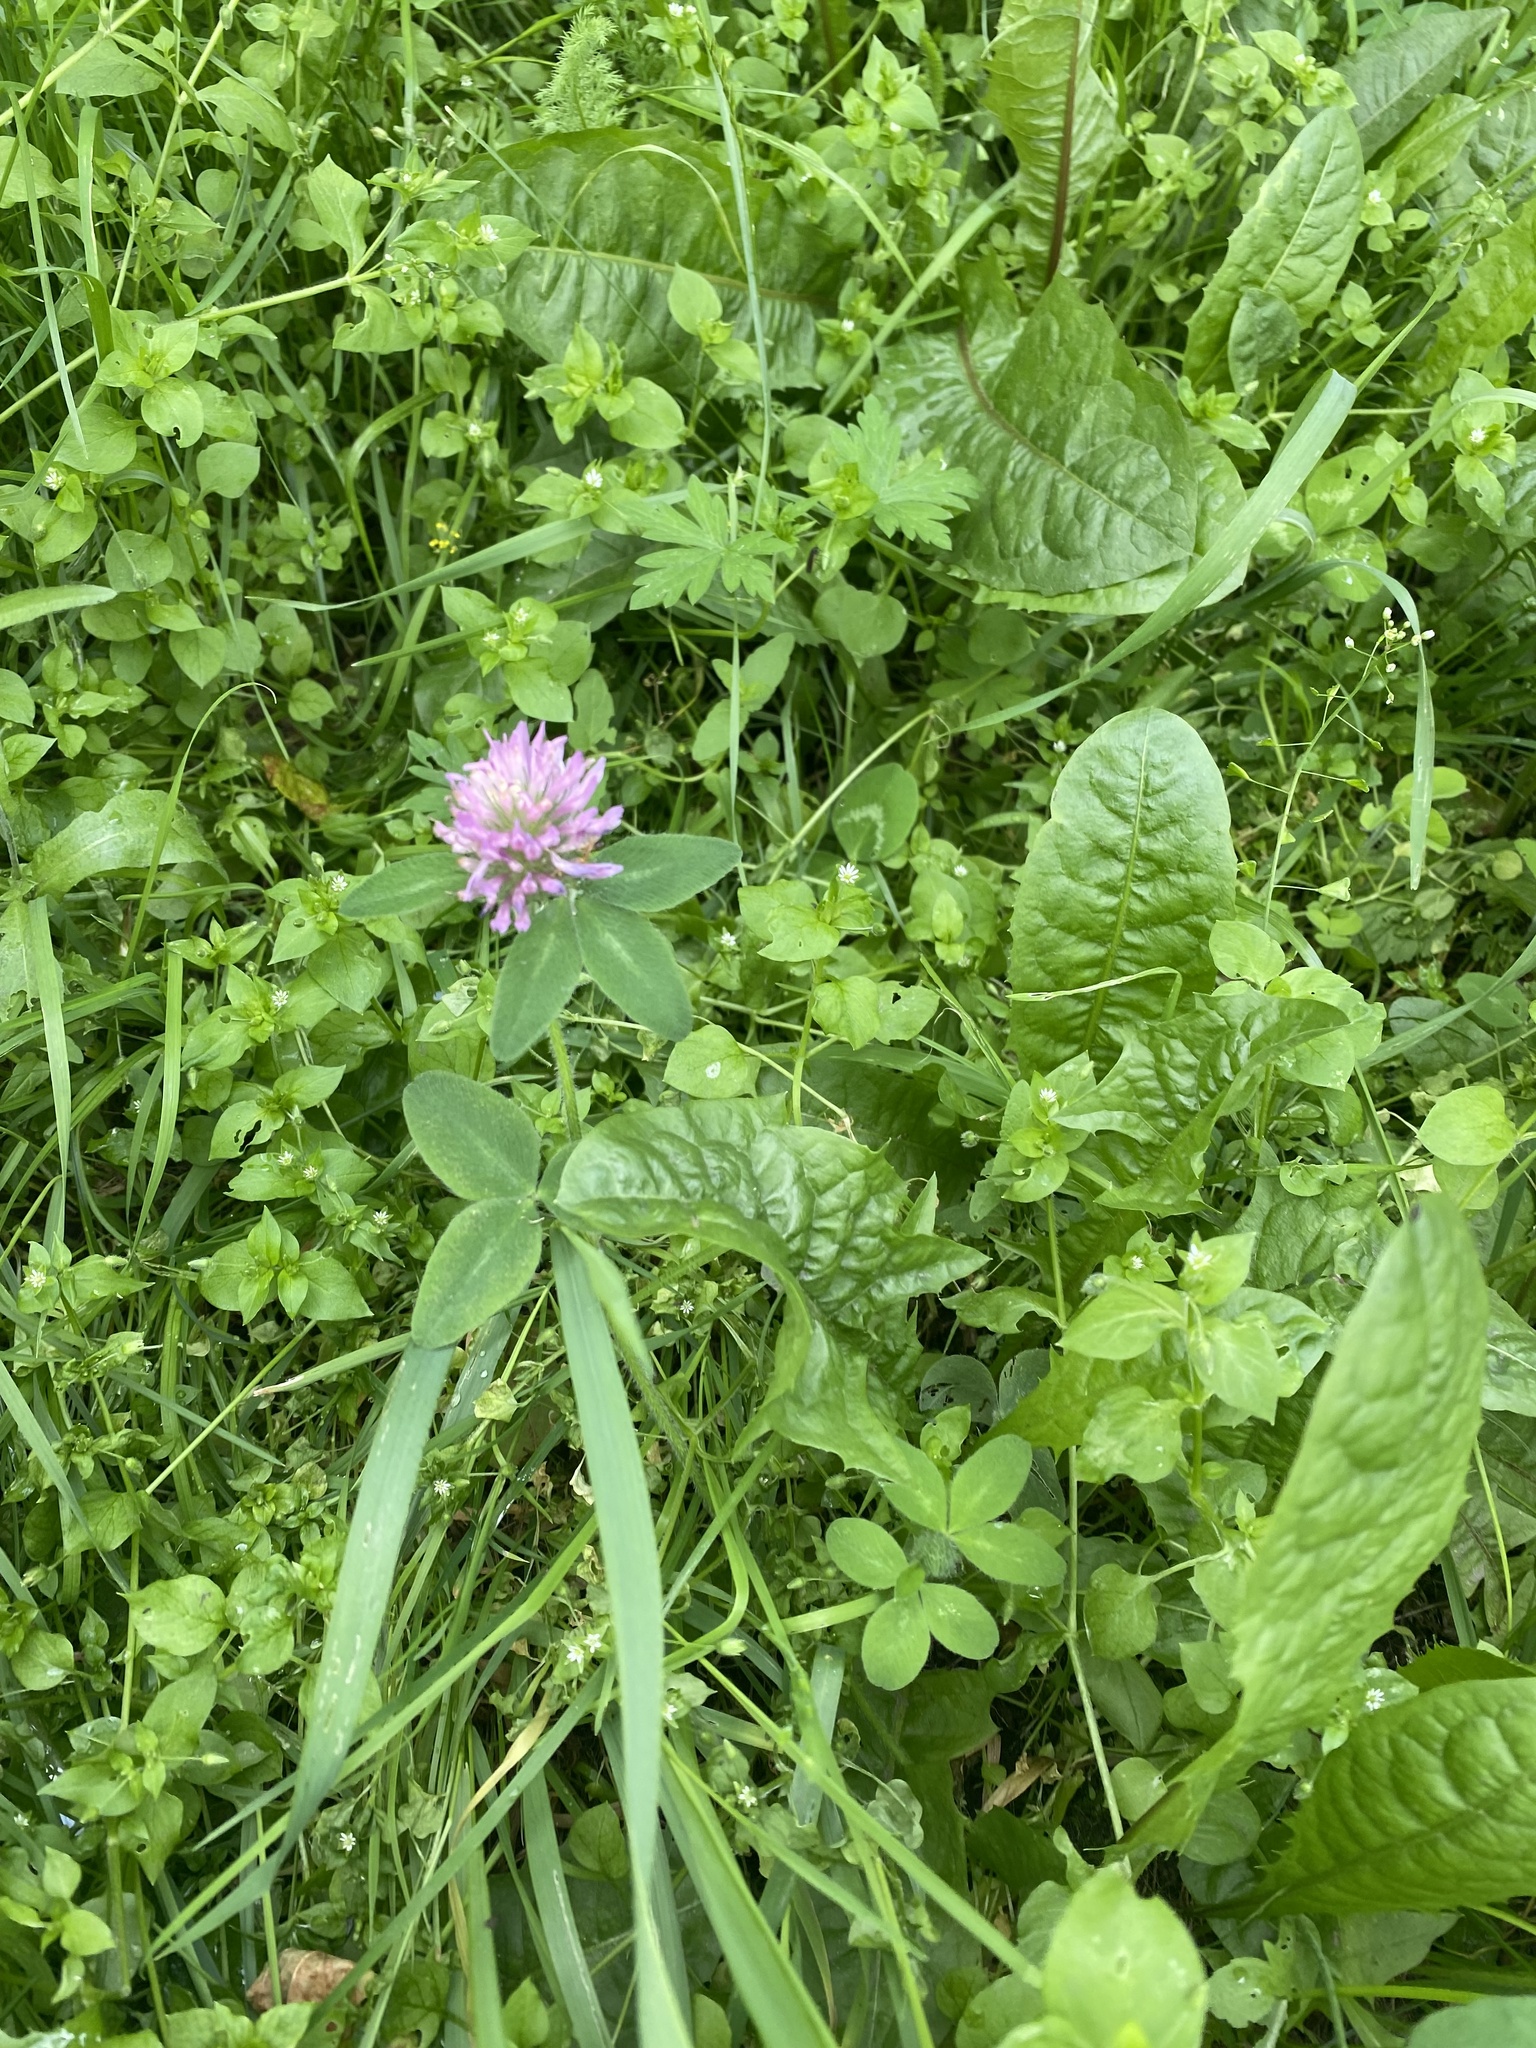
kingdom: Plantae
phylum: Tracheophyta
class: Magnoliopsida
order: Fabales
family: Fabaceae
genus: Trifolium
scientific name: Trifolium pratense
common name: Red clover
